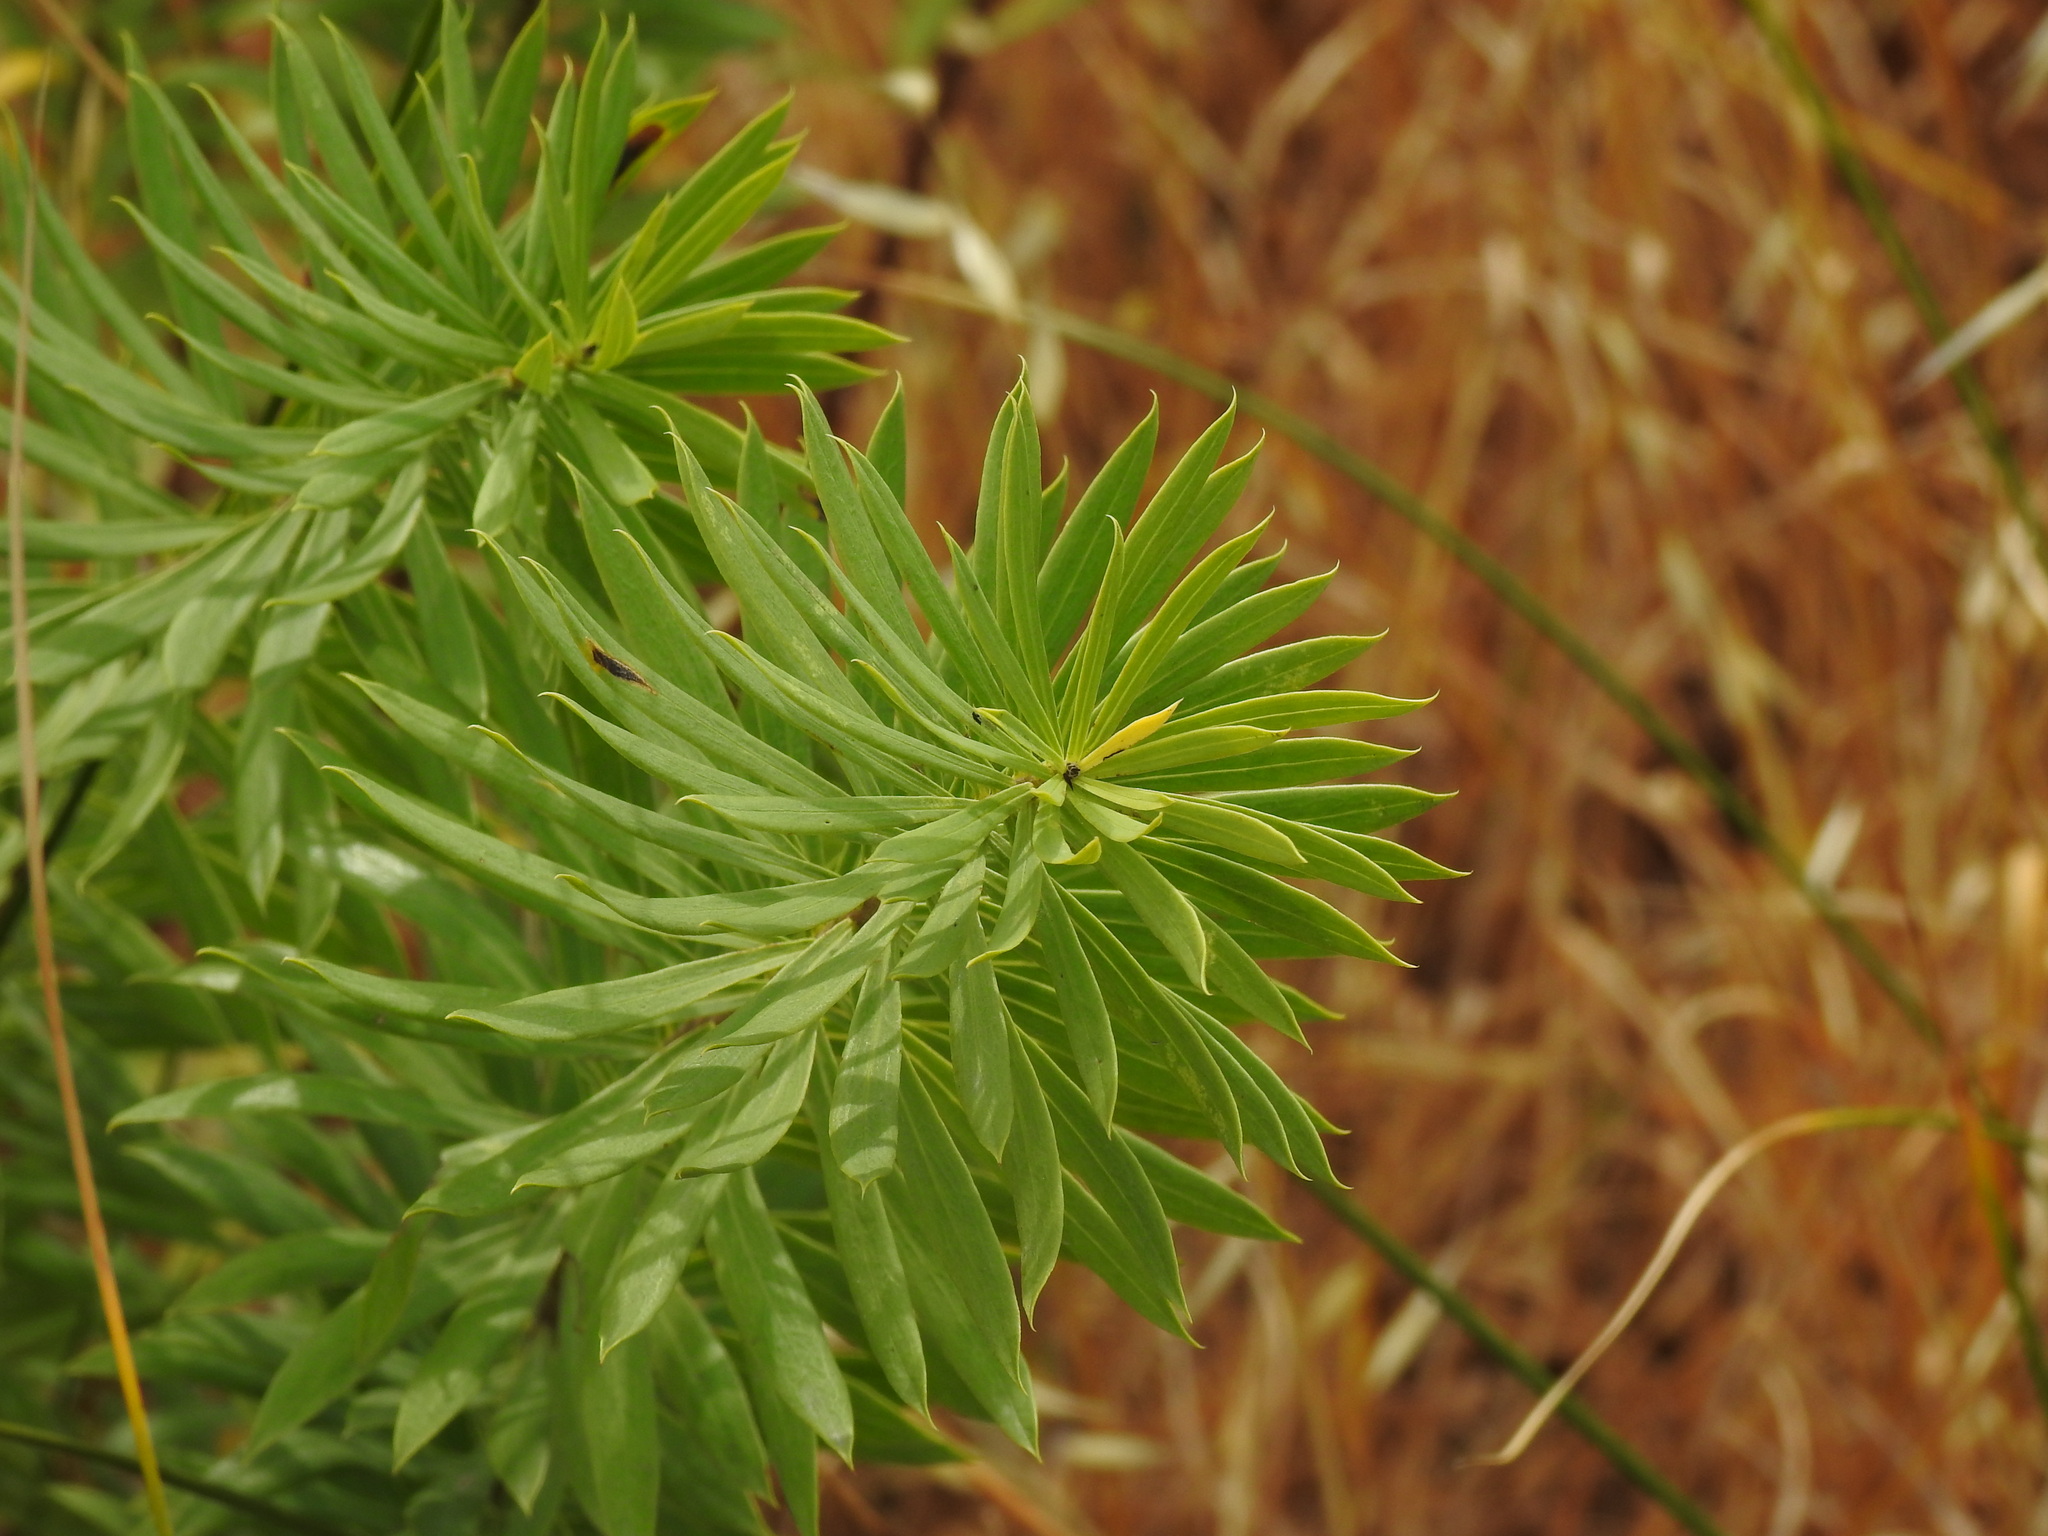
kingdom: Plantae
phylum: Tracheophyta
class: Magnoliopsida
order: Malvales
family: Thymelaeaceae
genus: Daphne
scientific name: Daphne gnidium
